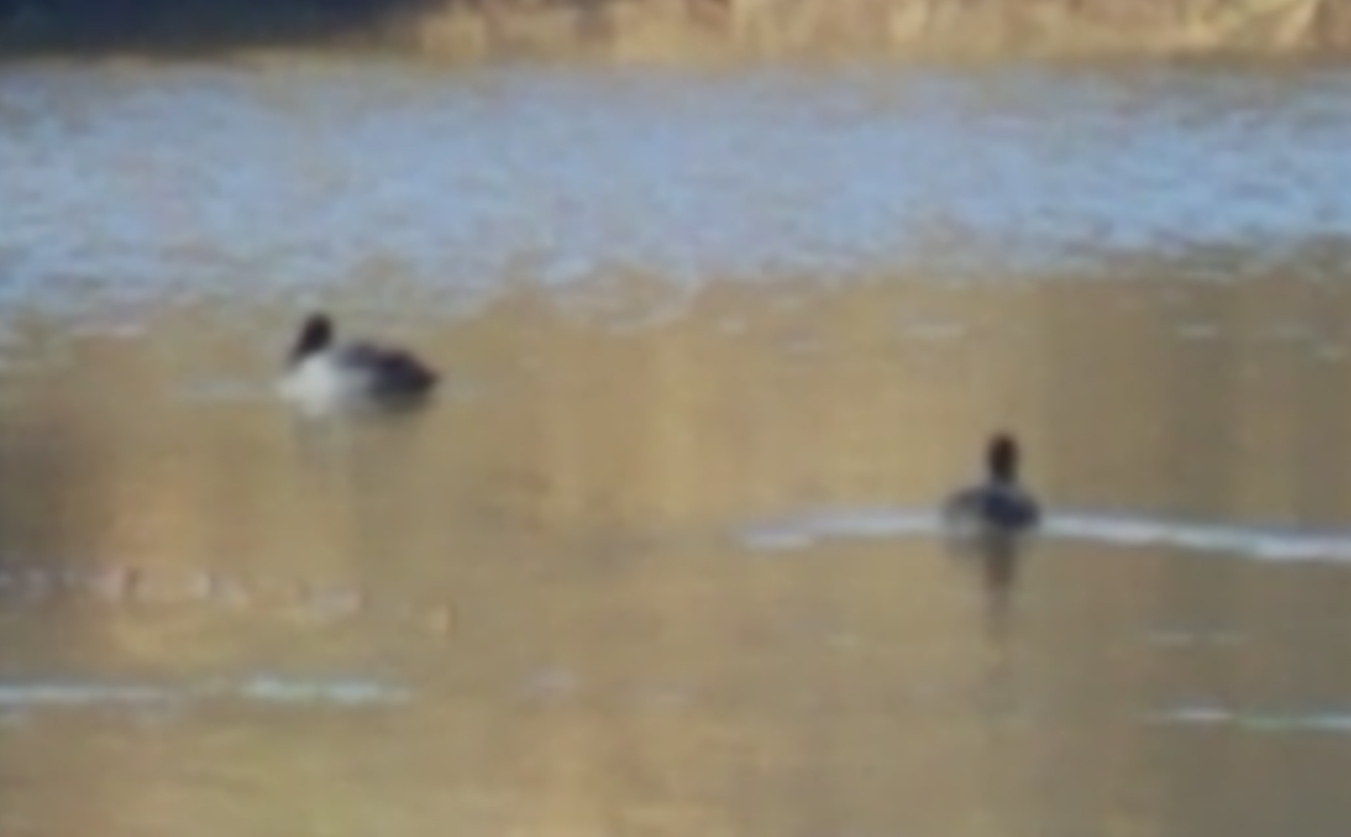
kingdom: Animalia
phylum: Chordata
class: Aves
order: Gruiformes
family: Rallidae
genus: Fulica
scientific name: Fulica americana
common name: American coot
